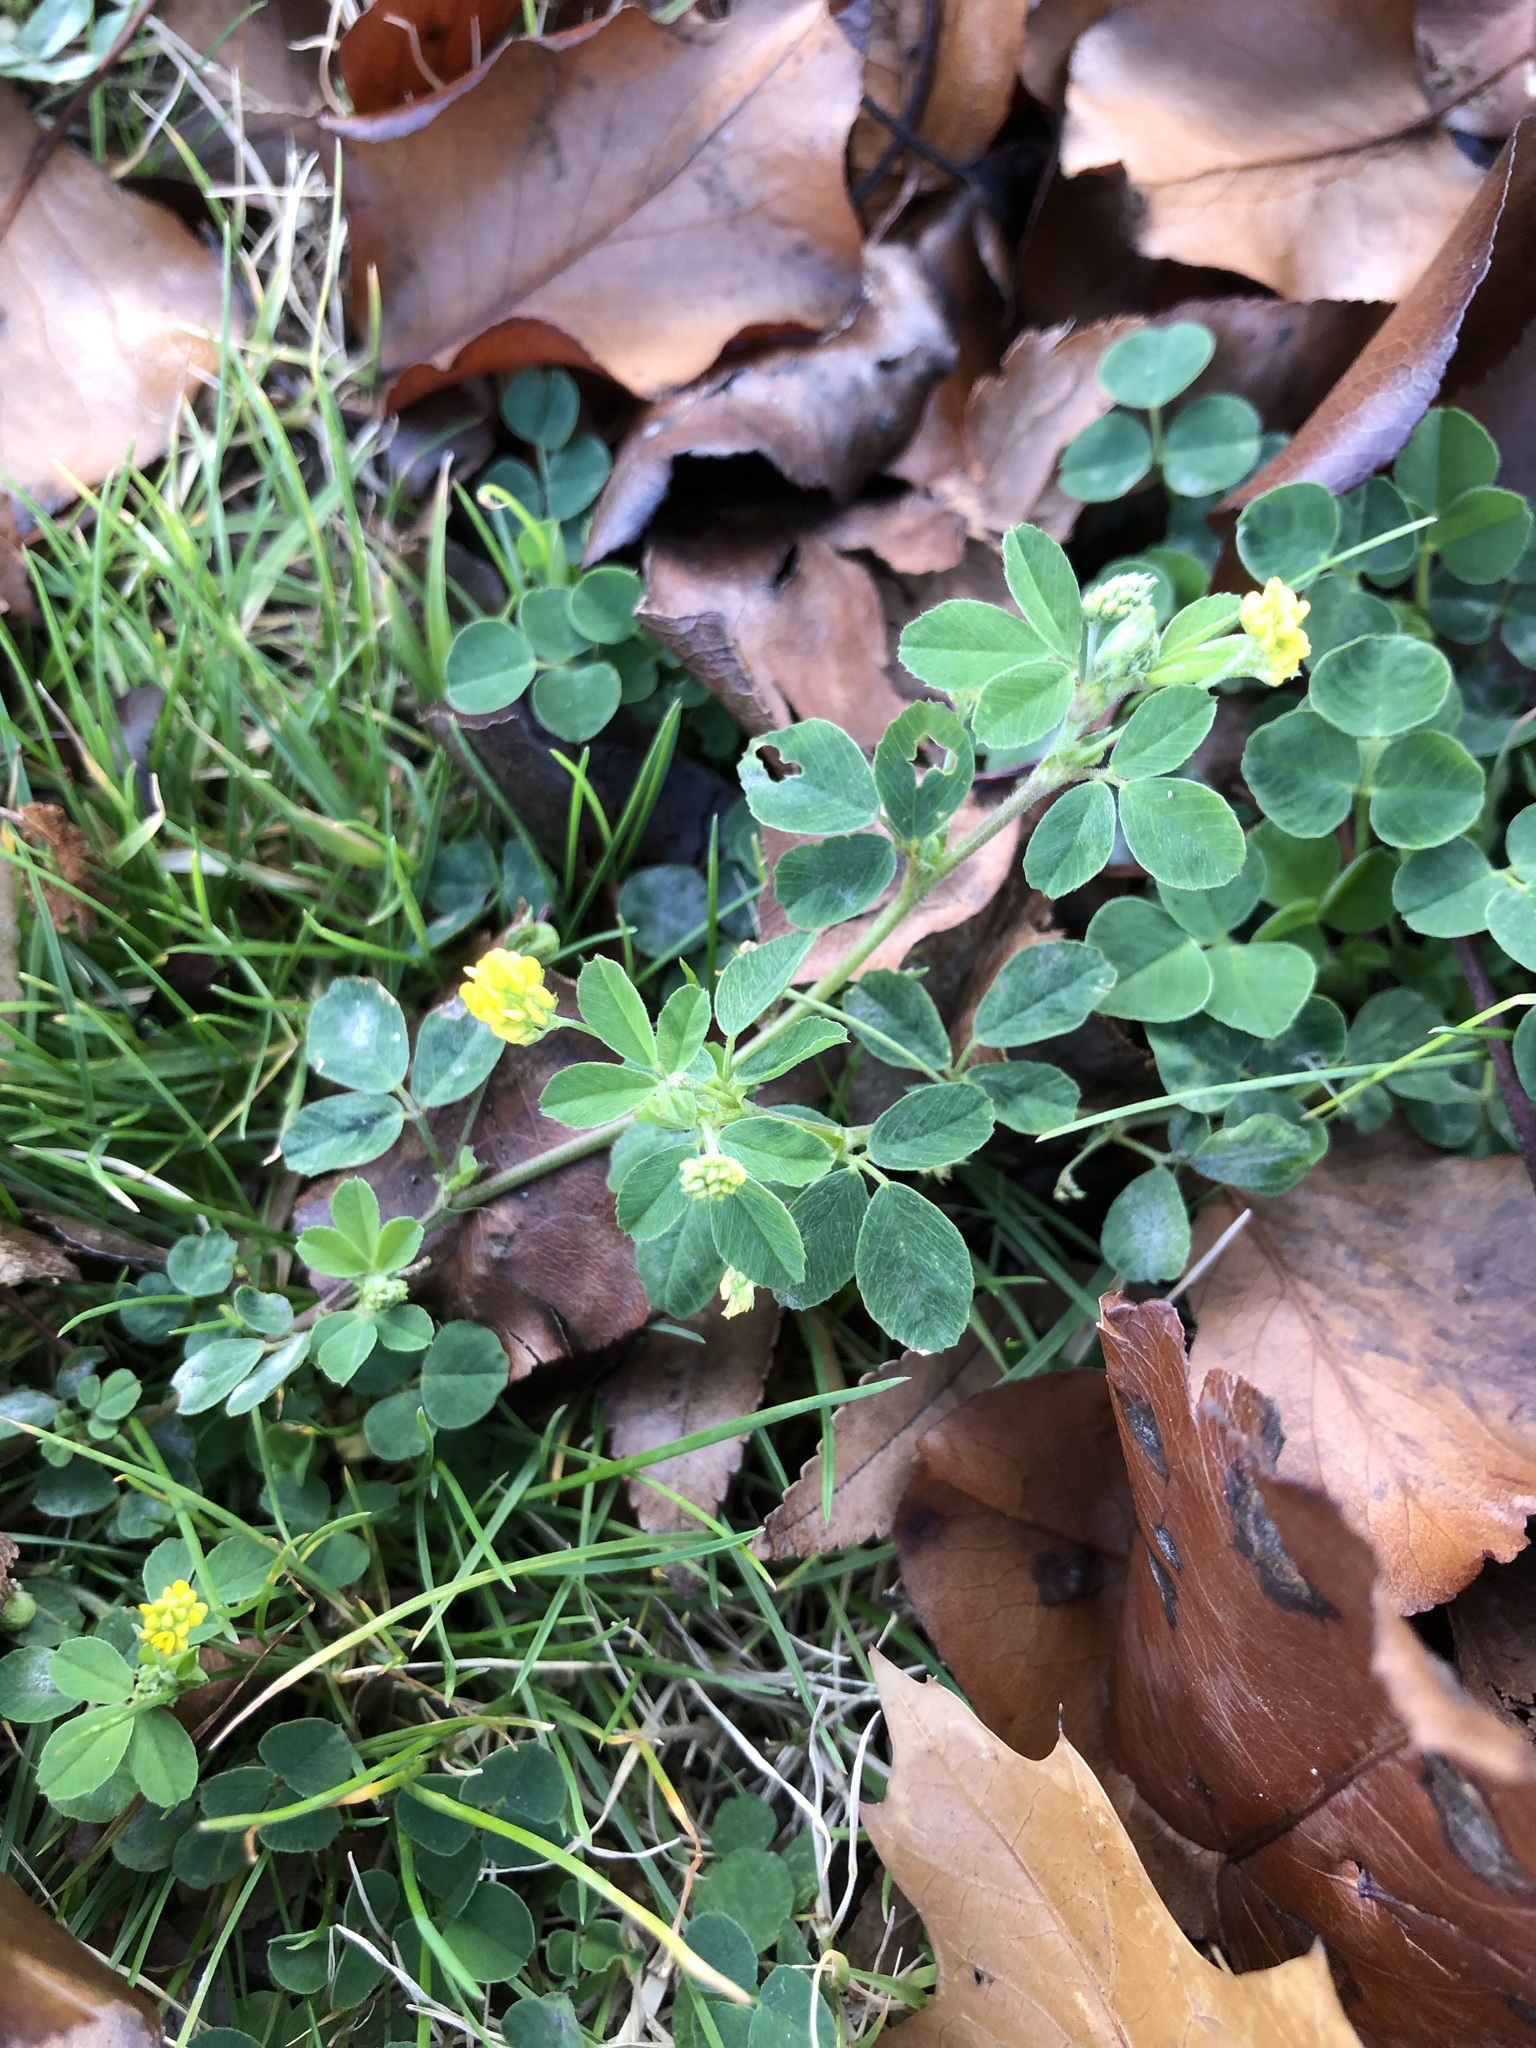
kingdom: Plantae
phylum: Tracheophyta
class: Magnoliopsida
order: Fabales
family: Fabaceae
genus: Medicago
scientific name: Medicago lupulina
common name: Black medick
